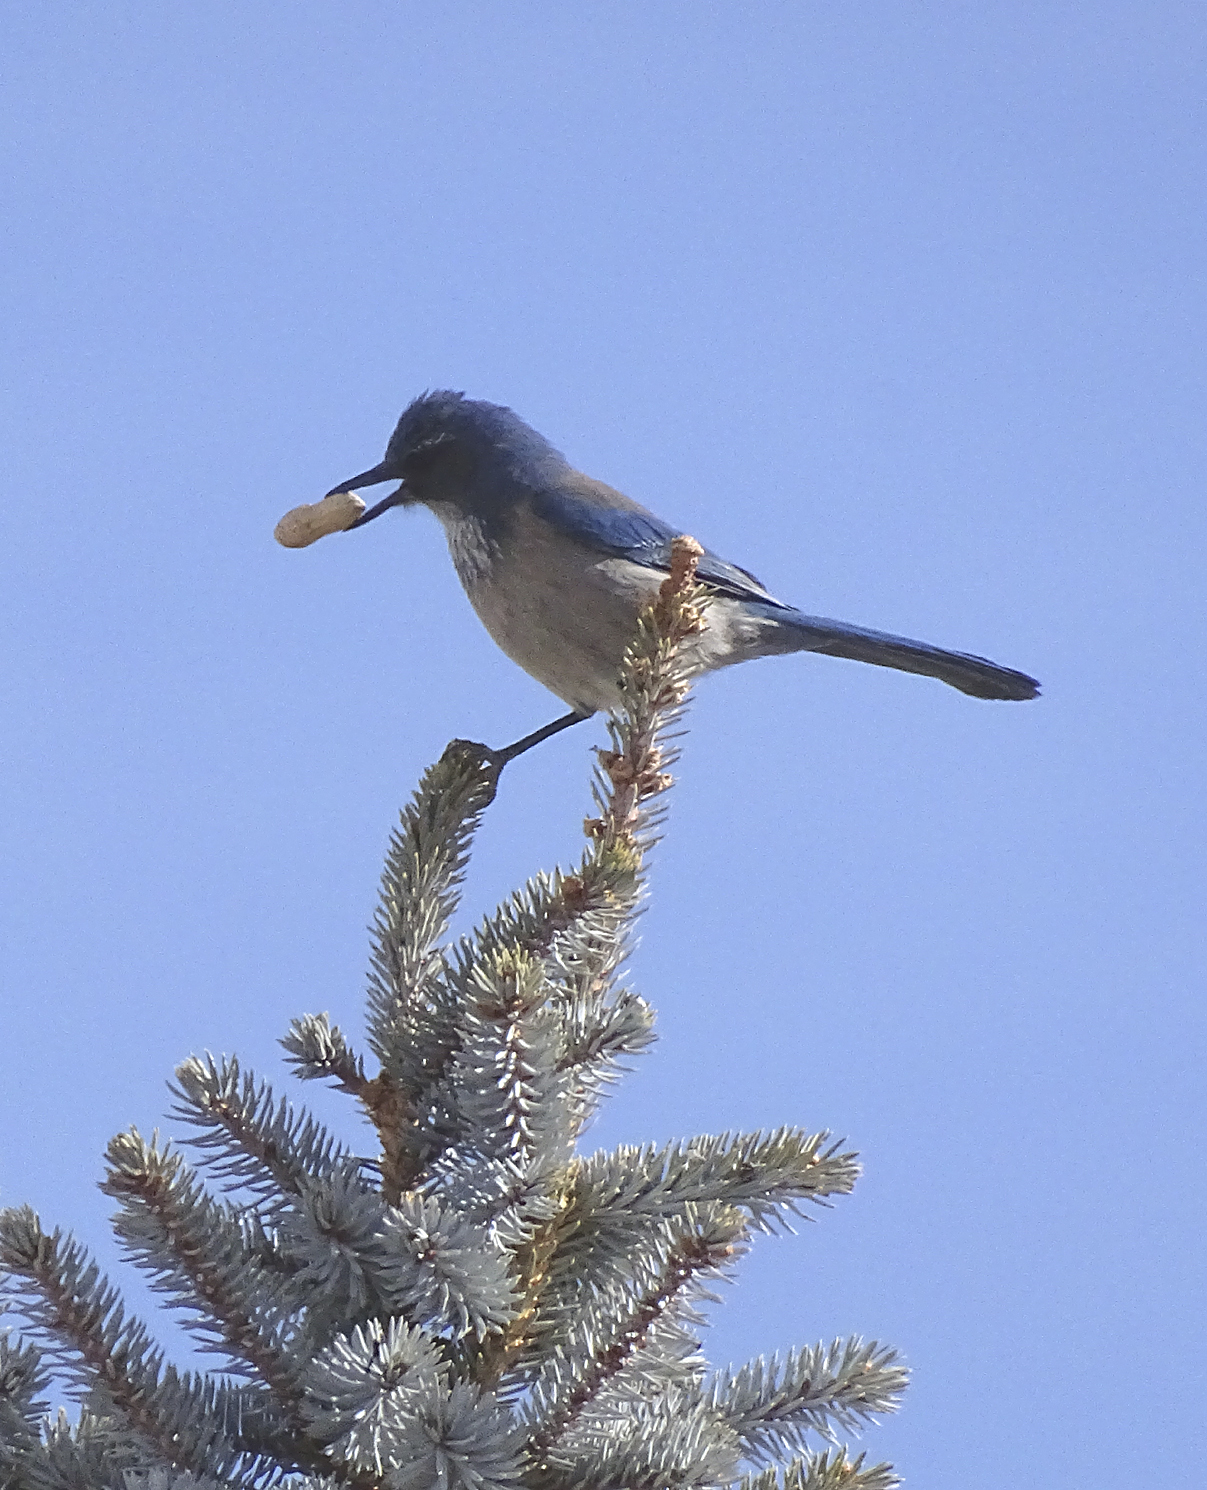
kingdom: Animalia
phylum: Chordata
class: Aves
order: Passeriformes
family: Corvidae
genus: Aphelocoma
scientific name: Aphelocoma californica
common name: California scrub-jay
